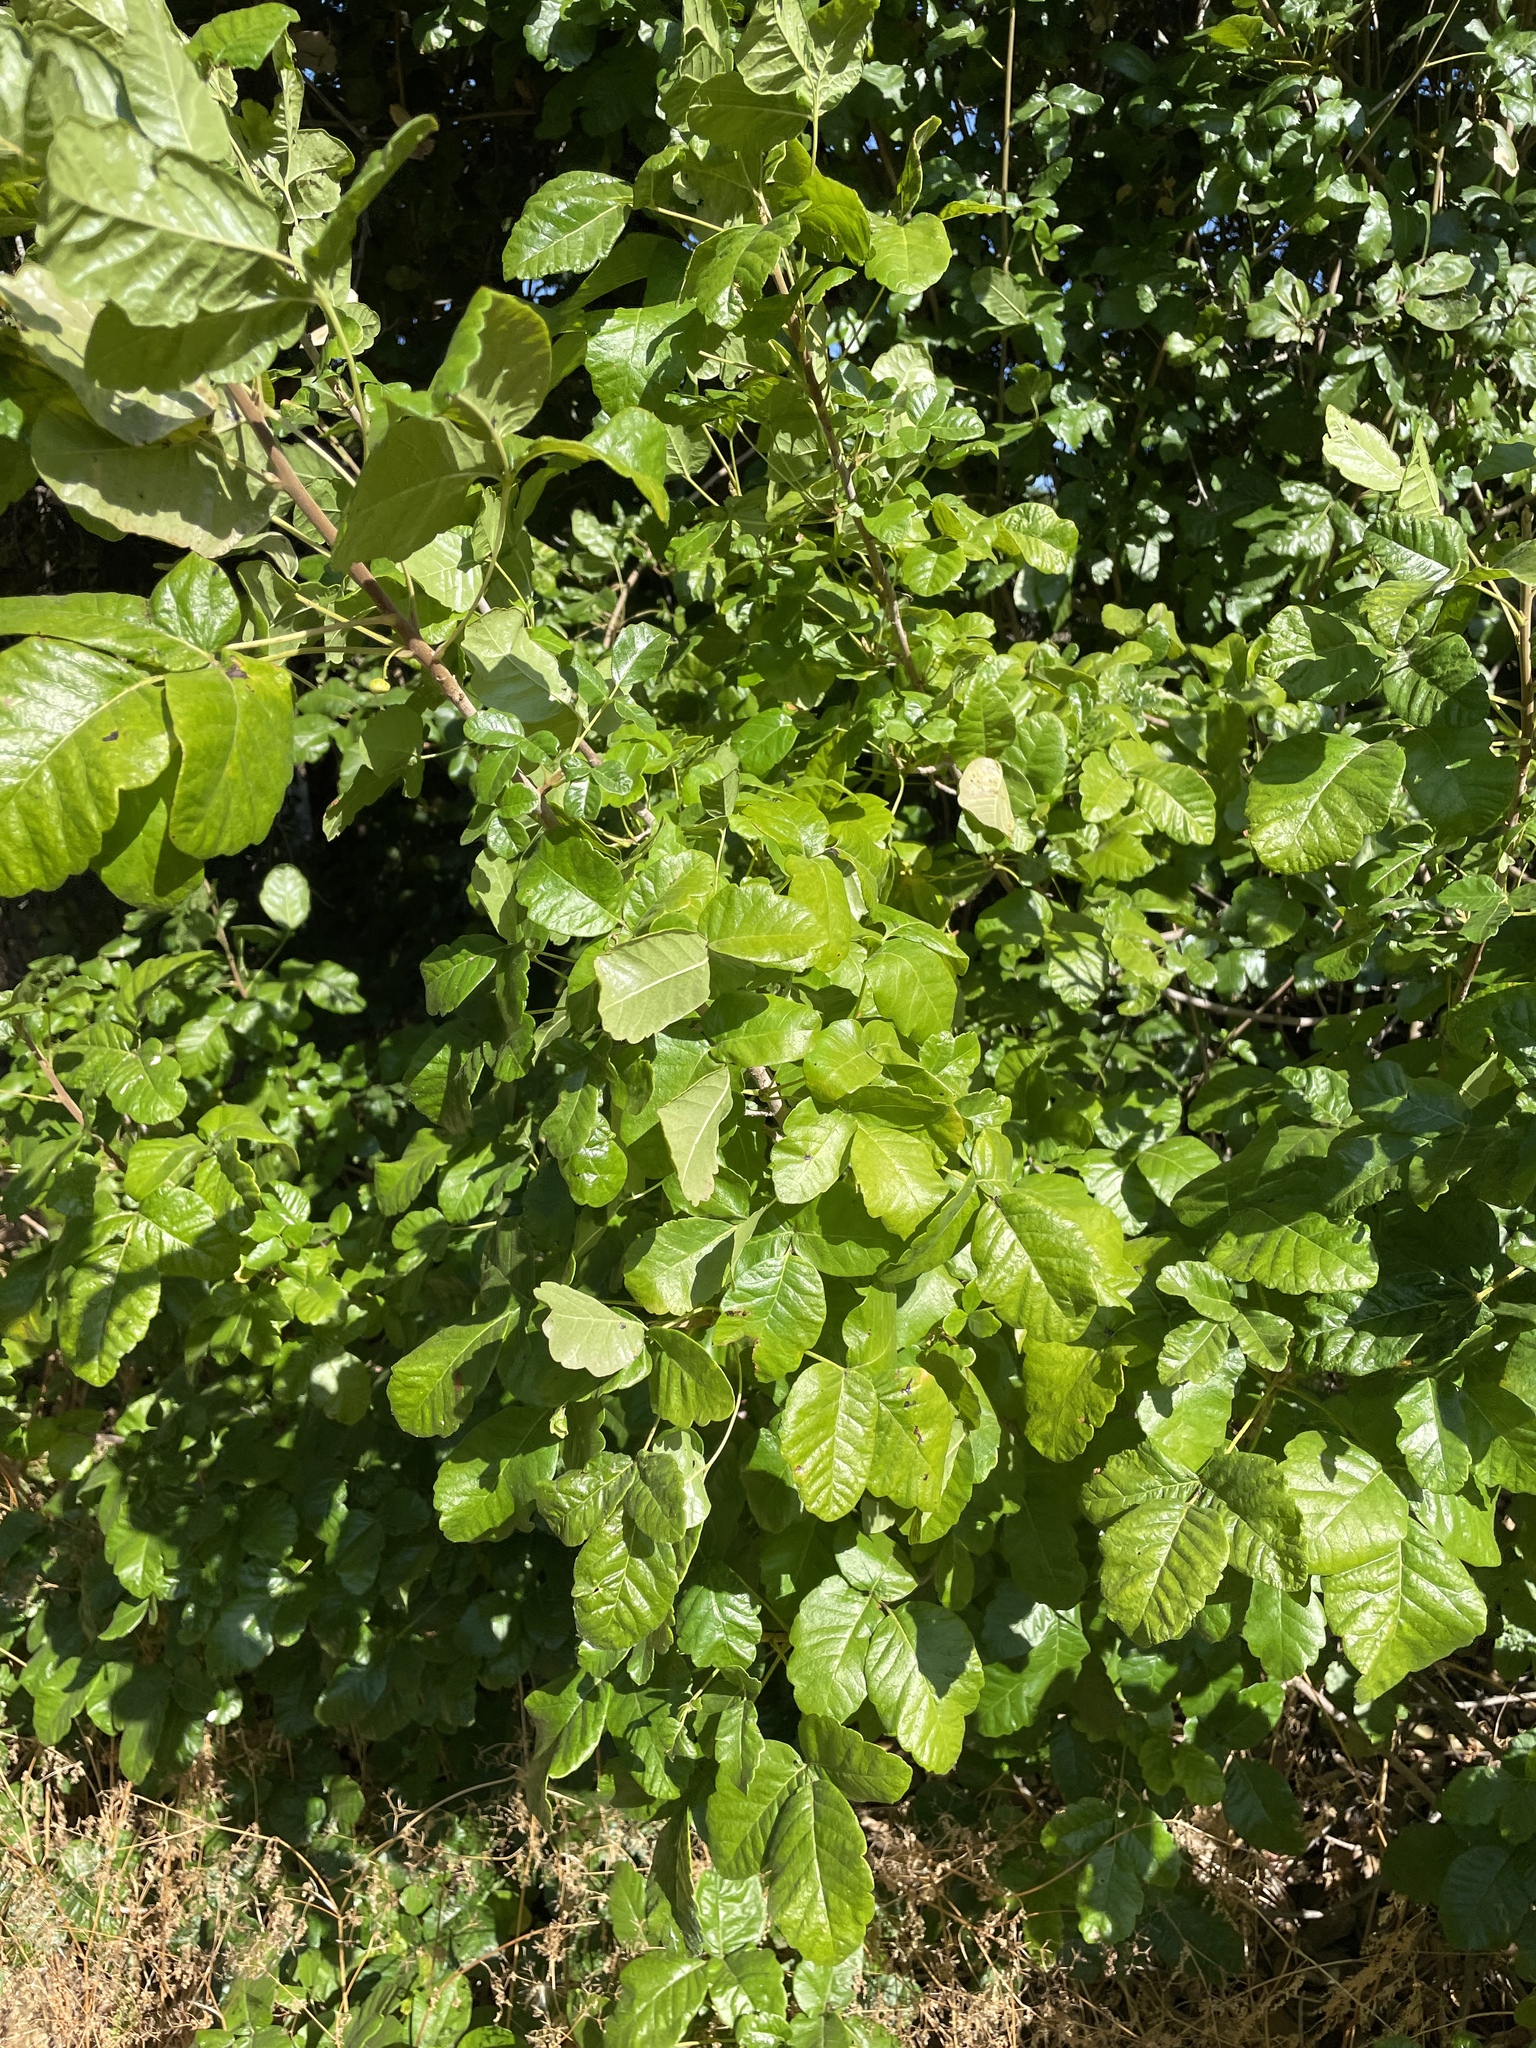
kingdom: Plantae
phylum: Tracheophyta
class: Magnoliopsida
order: Sapindales
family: Anacardiaceae
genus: Toxicodendron
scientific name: Toxicodendron diversilobum
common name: Pacific poison-oak
